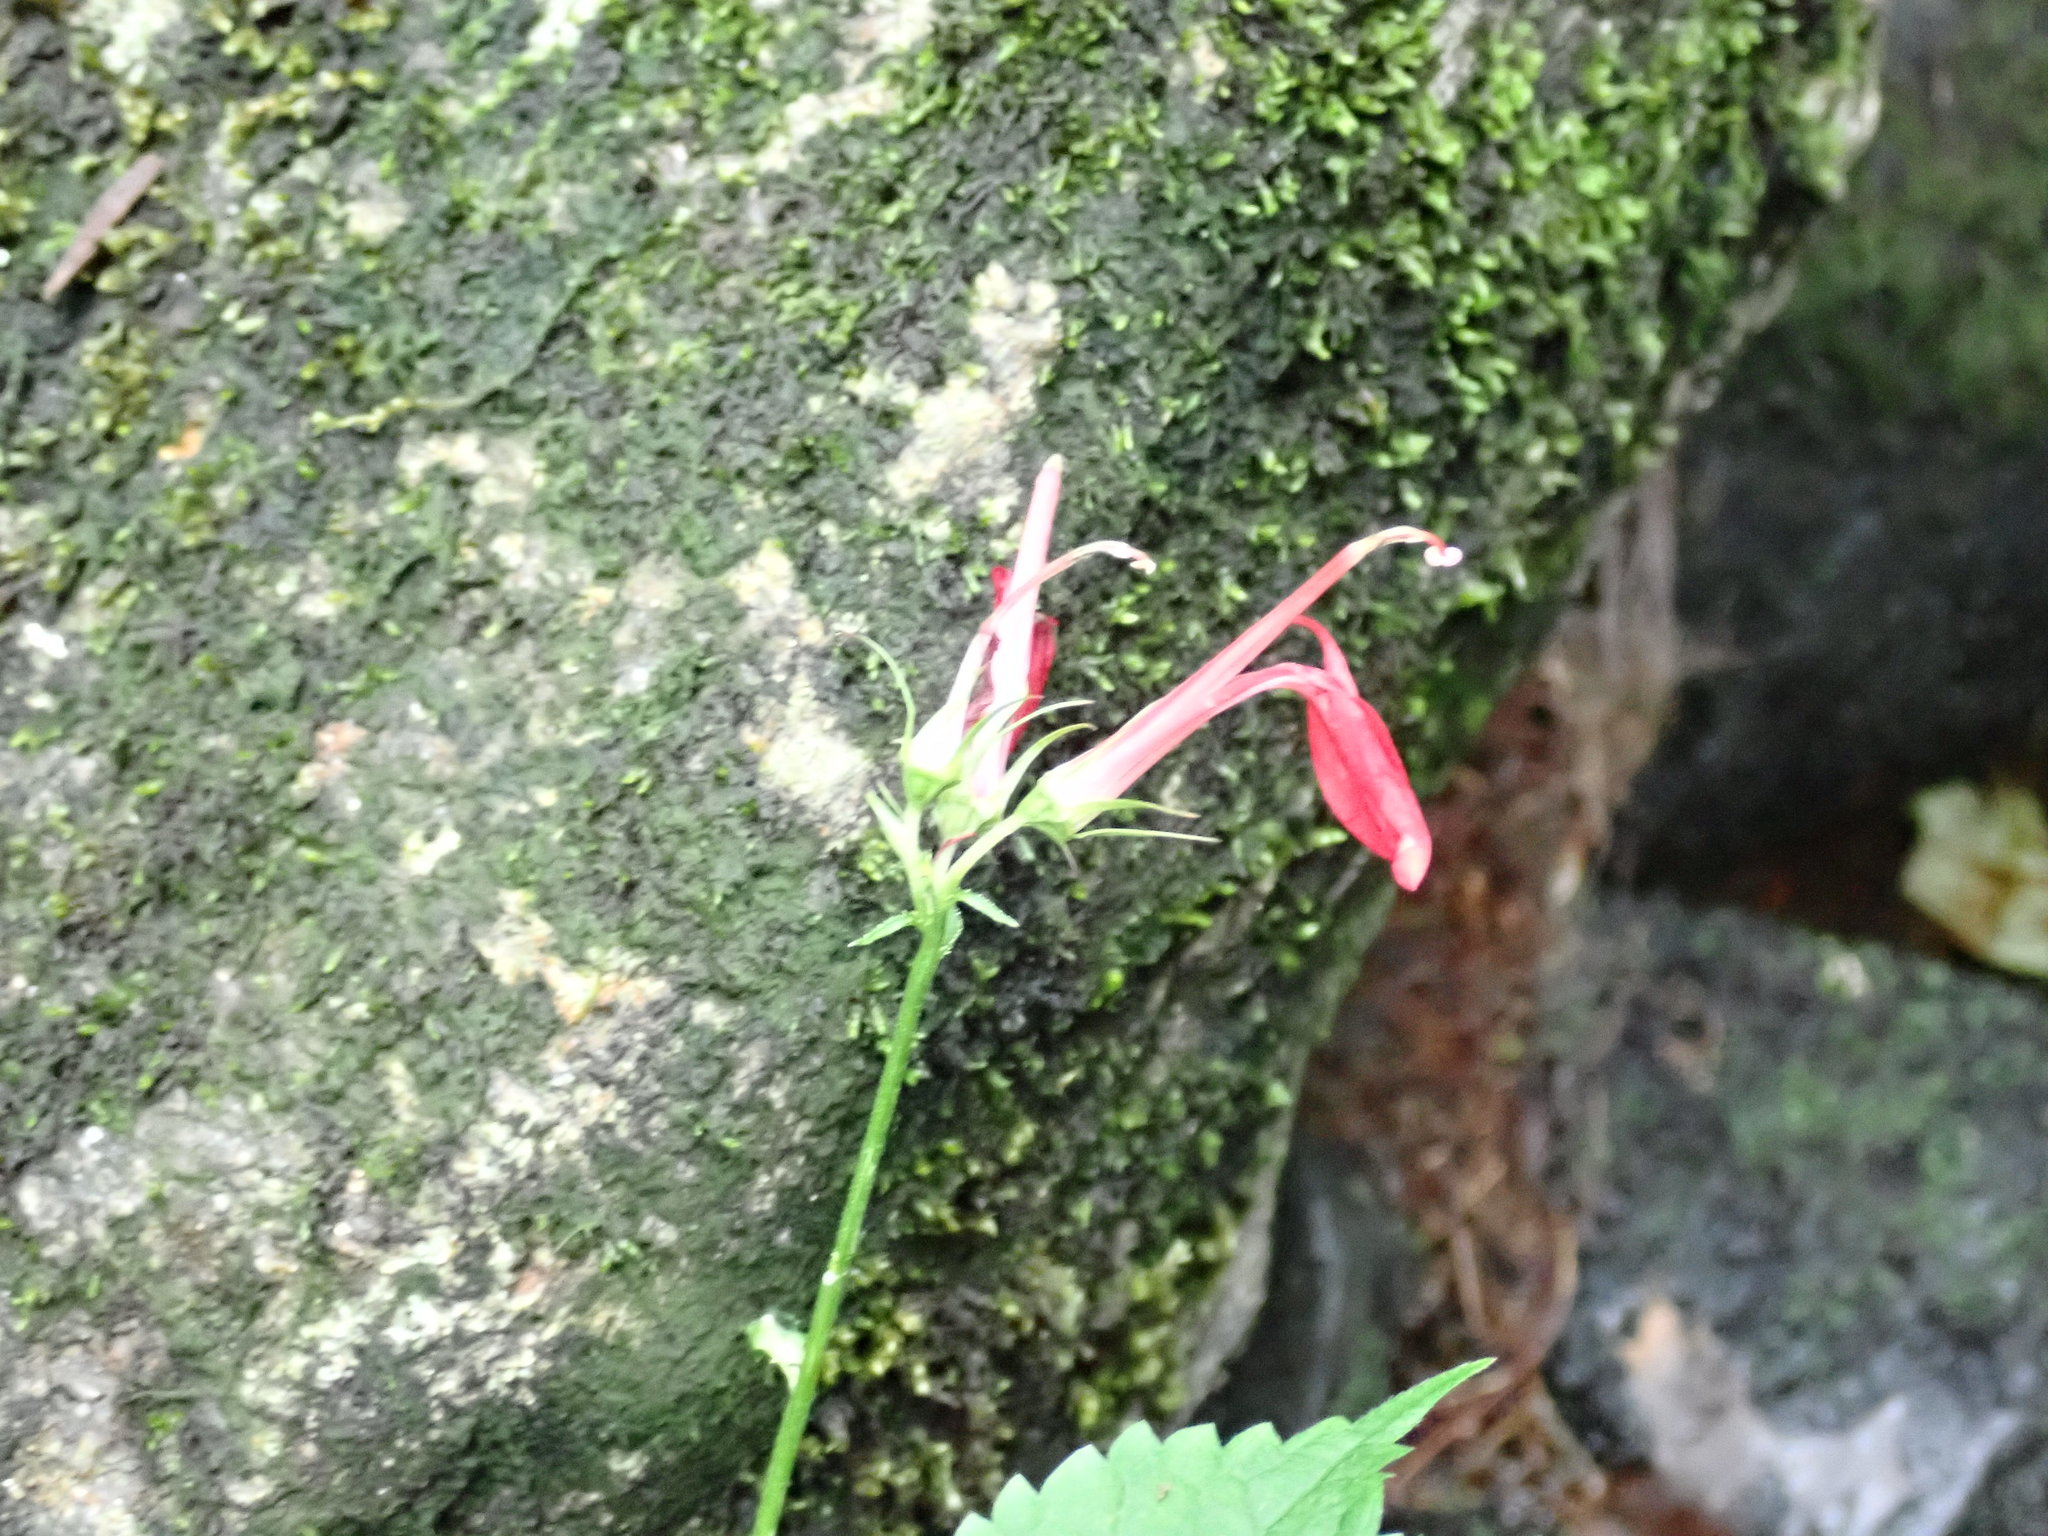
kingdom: Plantae
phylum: Tracheophyta
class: Magnoliopsida
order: Asterales
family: Campanulaceae
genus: Lobelia
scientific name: Lobelia cardinalis
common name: Cardinal flower
